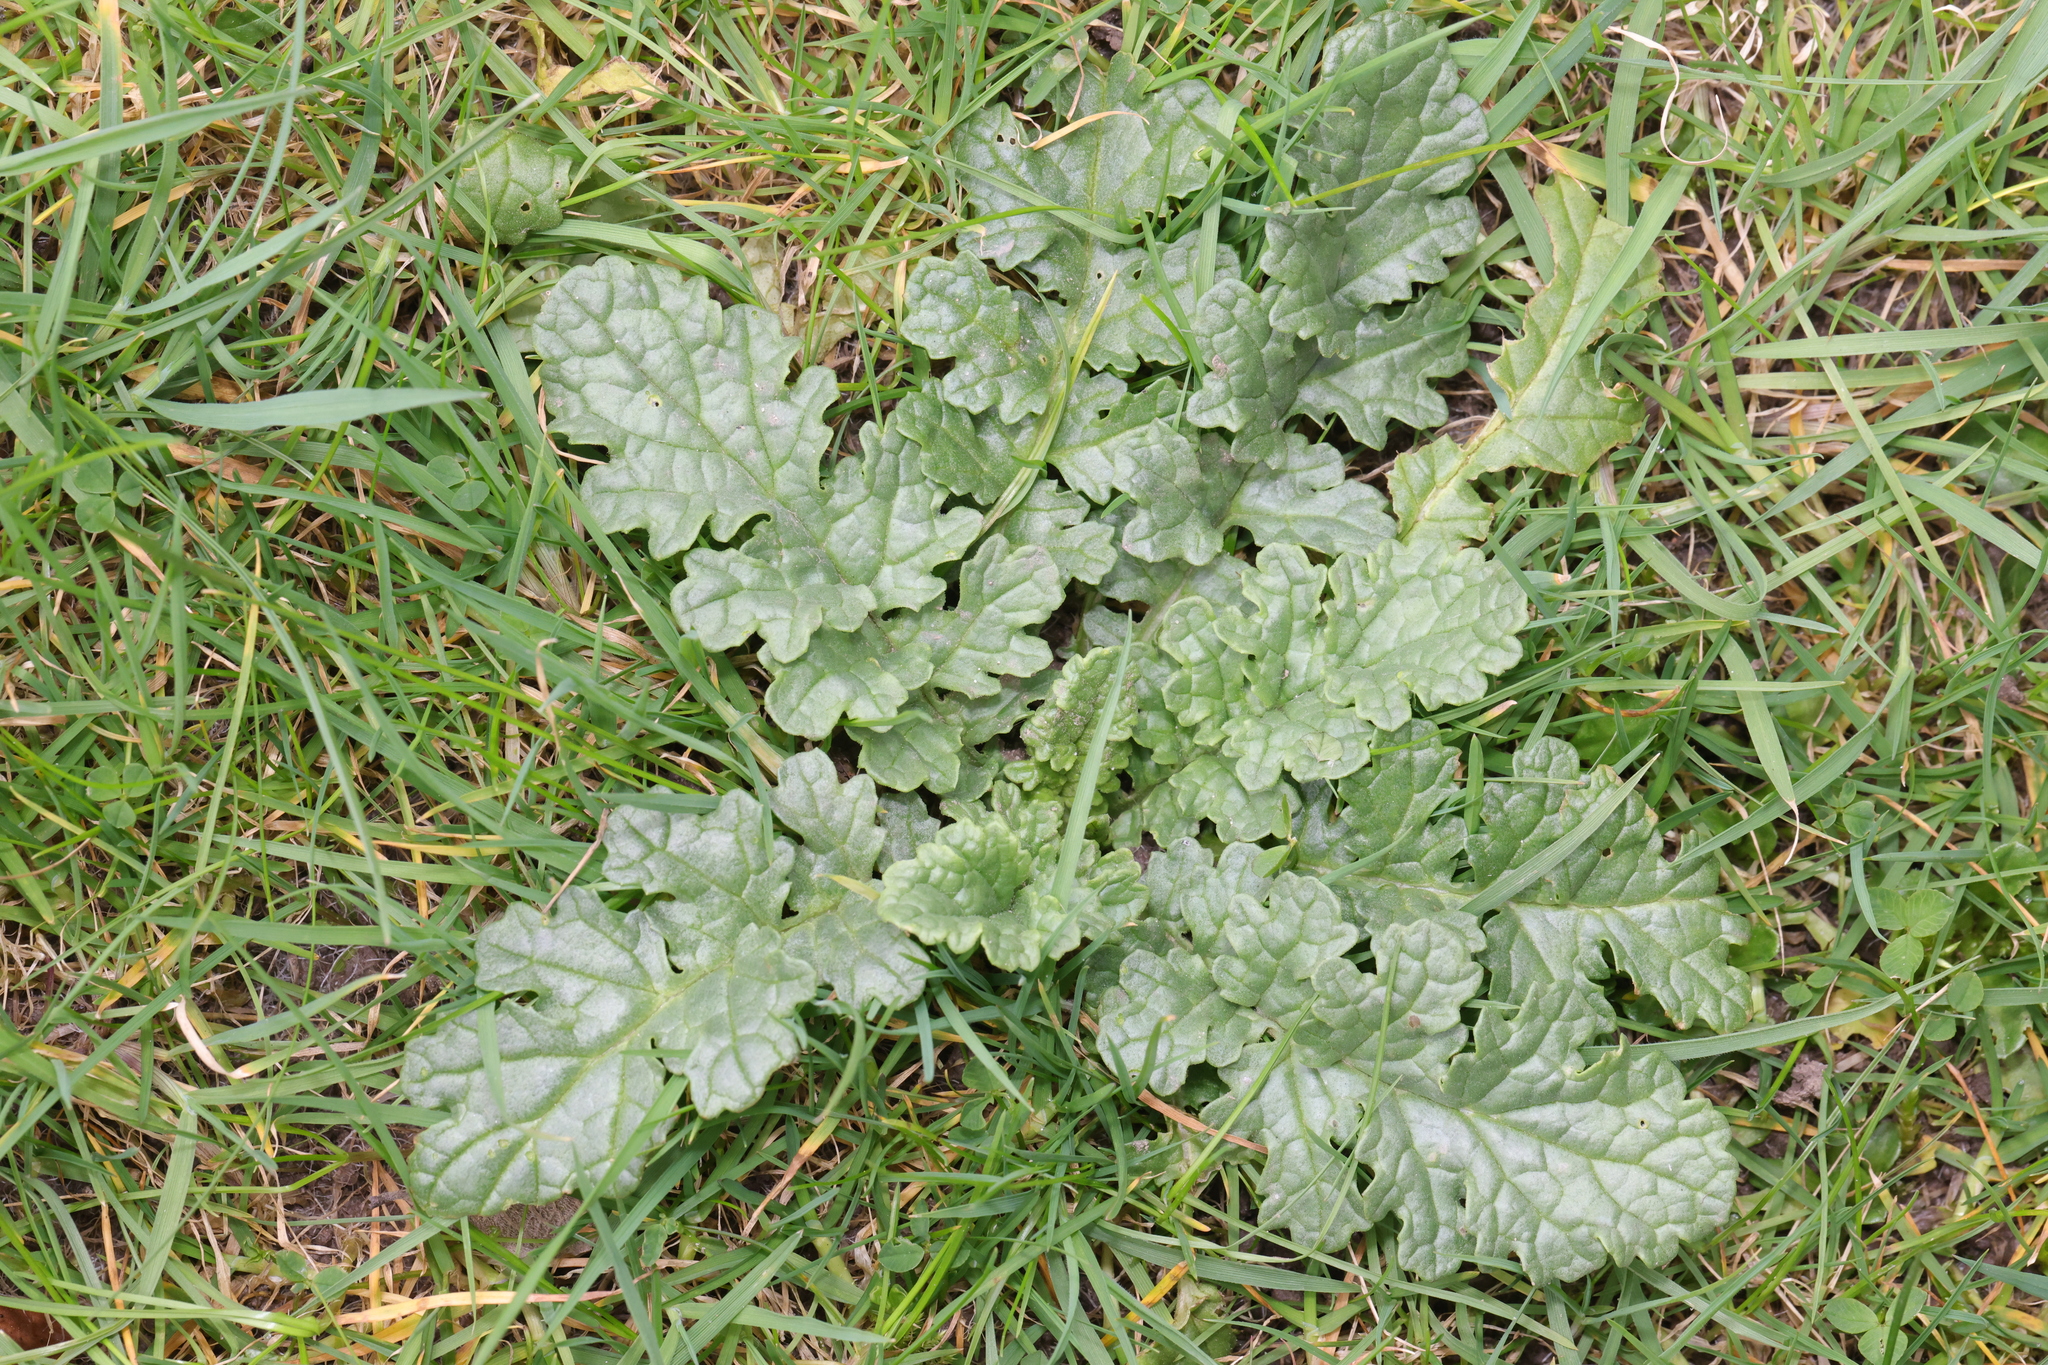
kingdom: Plantae
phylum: Tracheophyta
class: Magnoliopsida
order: Asterales
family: Asteraceae
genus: Jacobaea
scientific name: Jacobaea vulgaris
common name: Stinking willie
